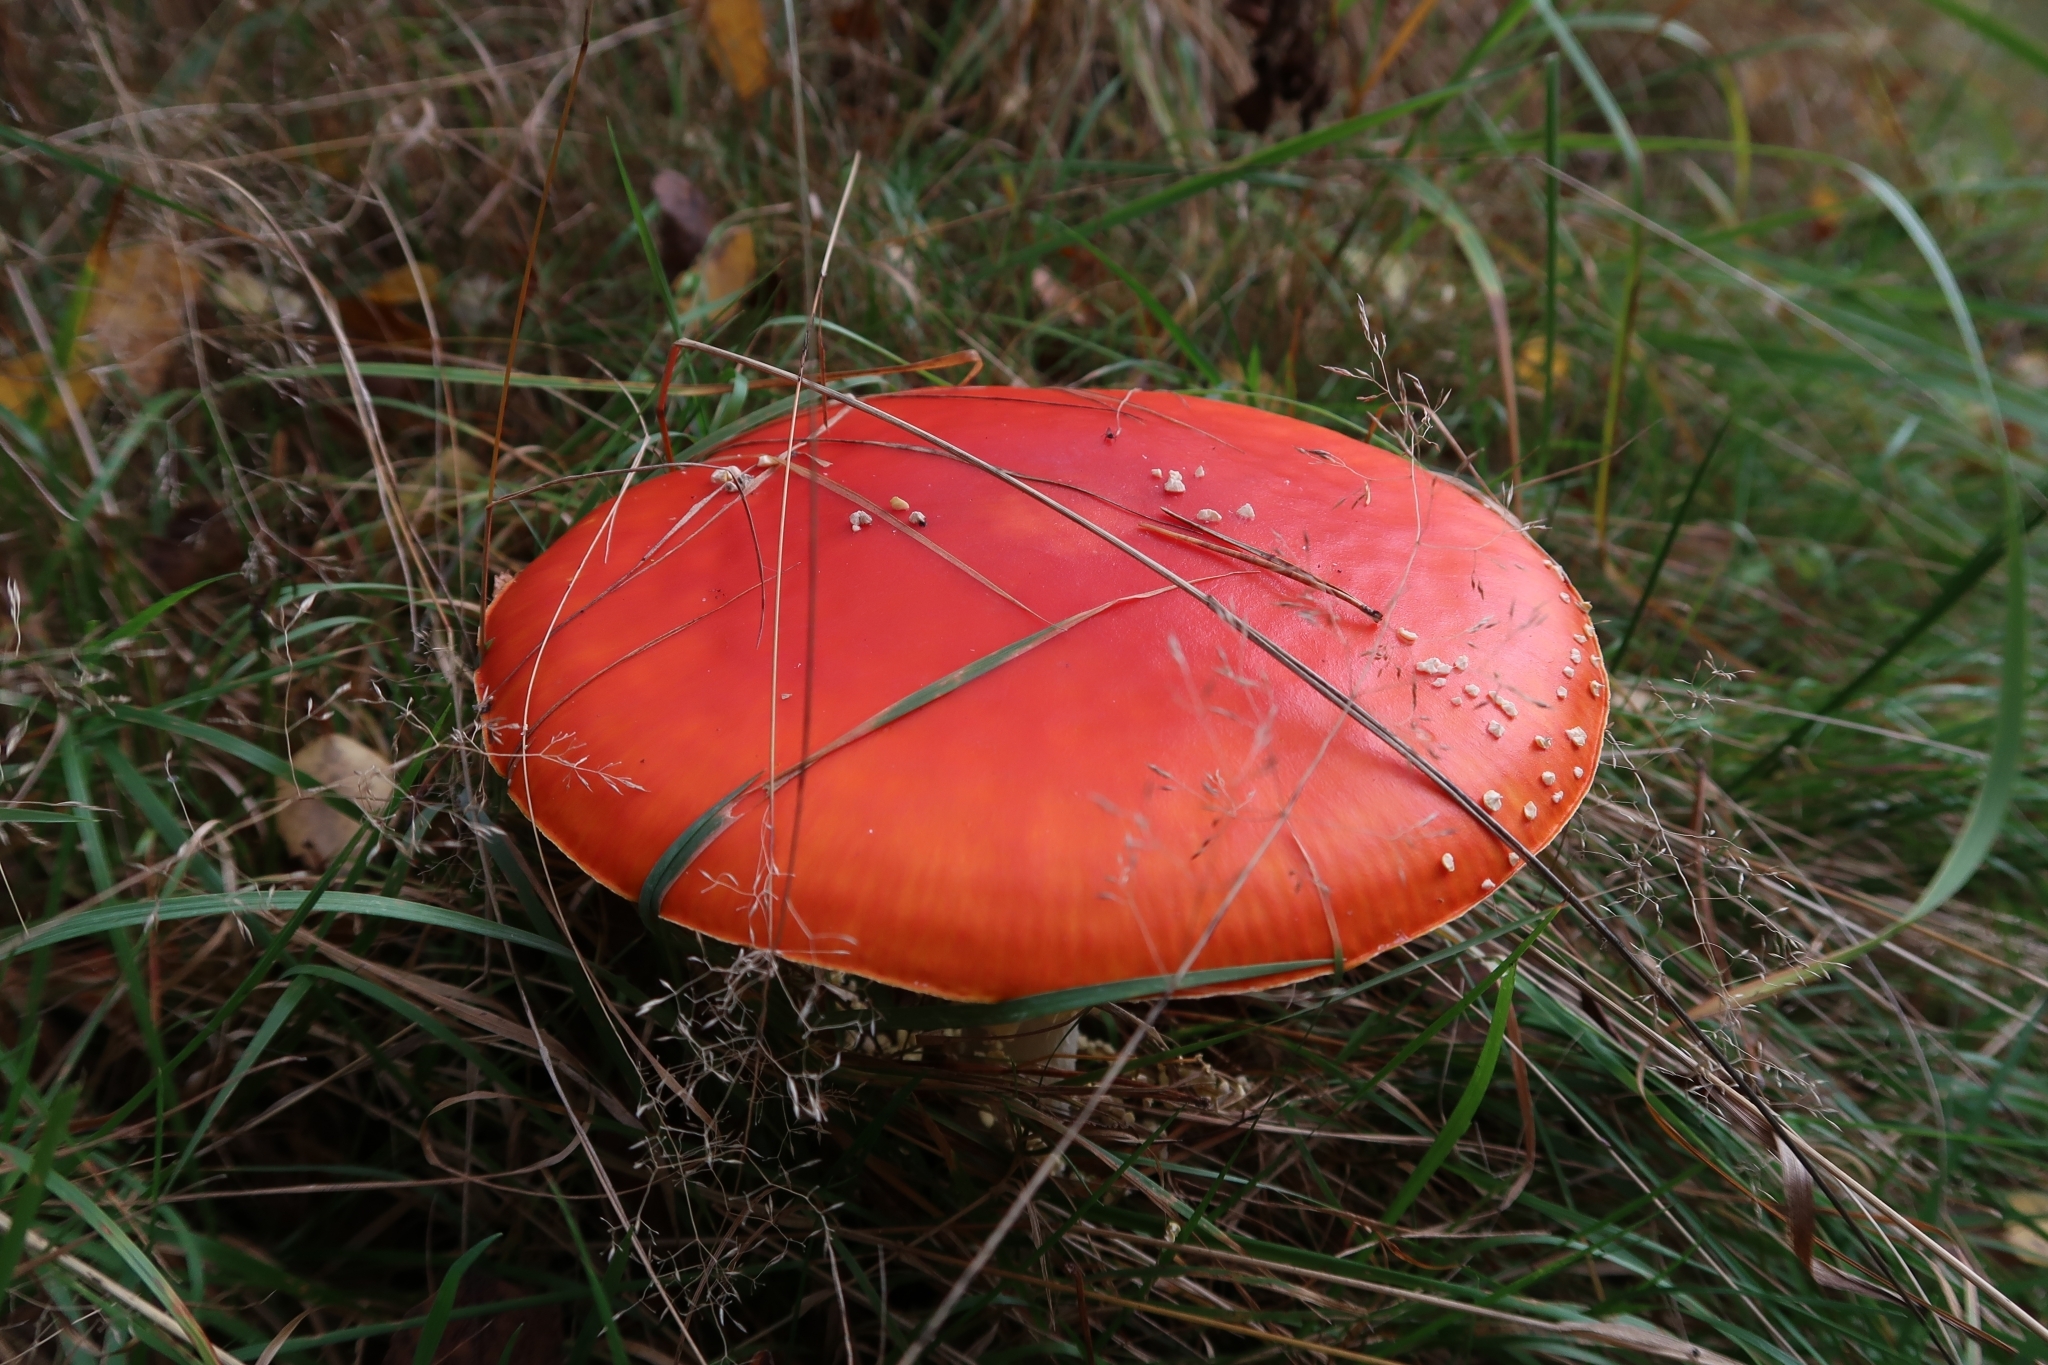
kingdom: Fungi
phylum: Basidiomycota
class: Agaricomycetes
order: Agaricales
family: Amanitaceae
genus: Amanita
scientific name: Amanita muscaria
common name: Fly agaric
